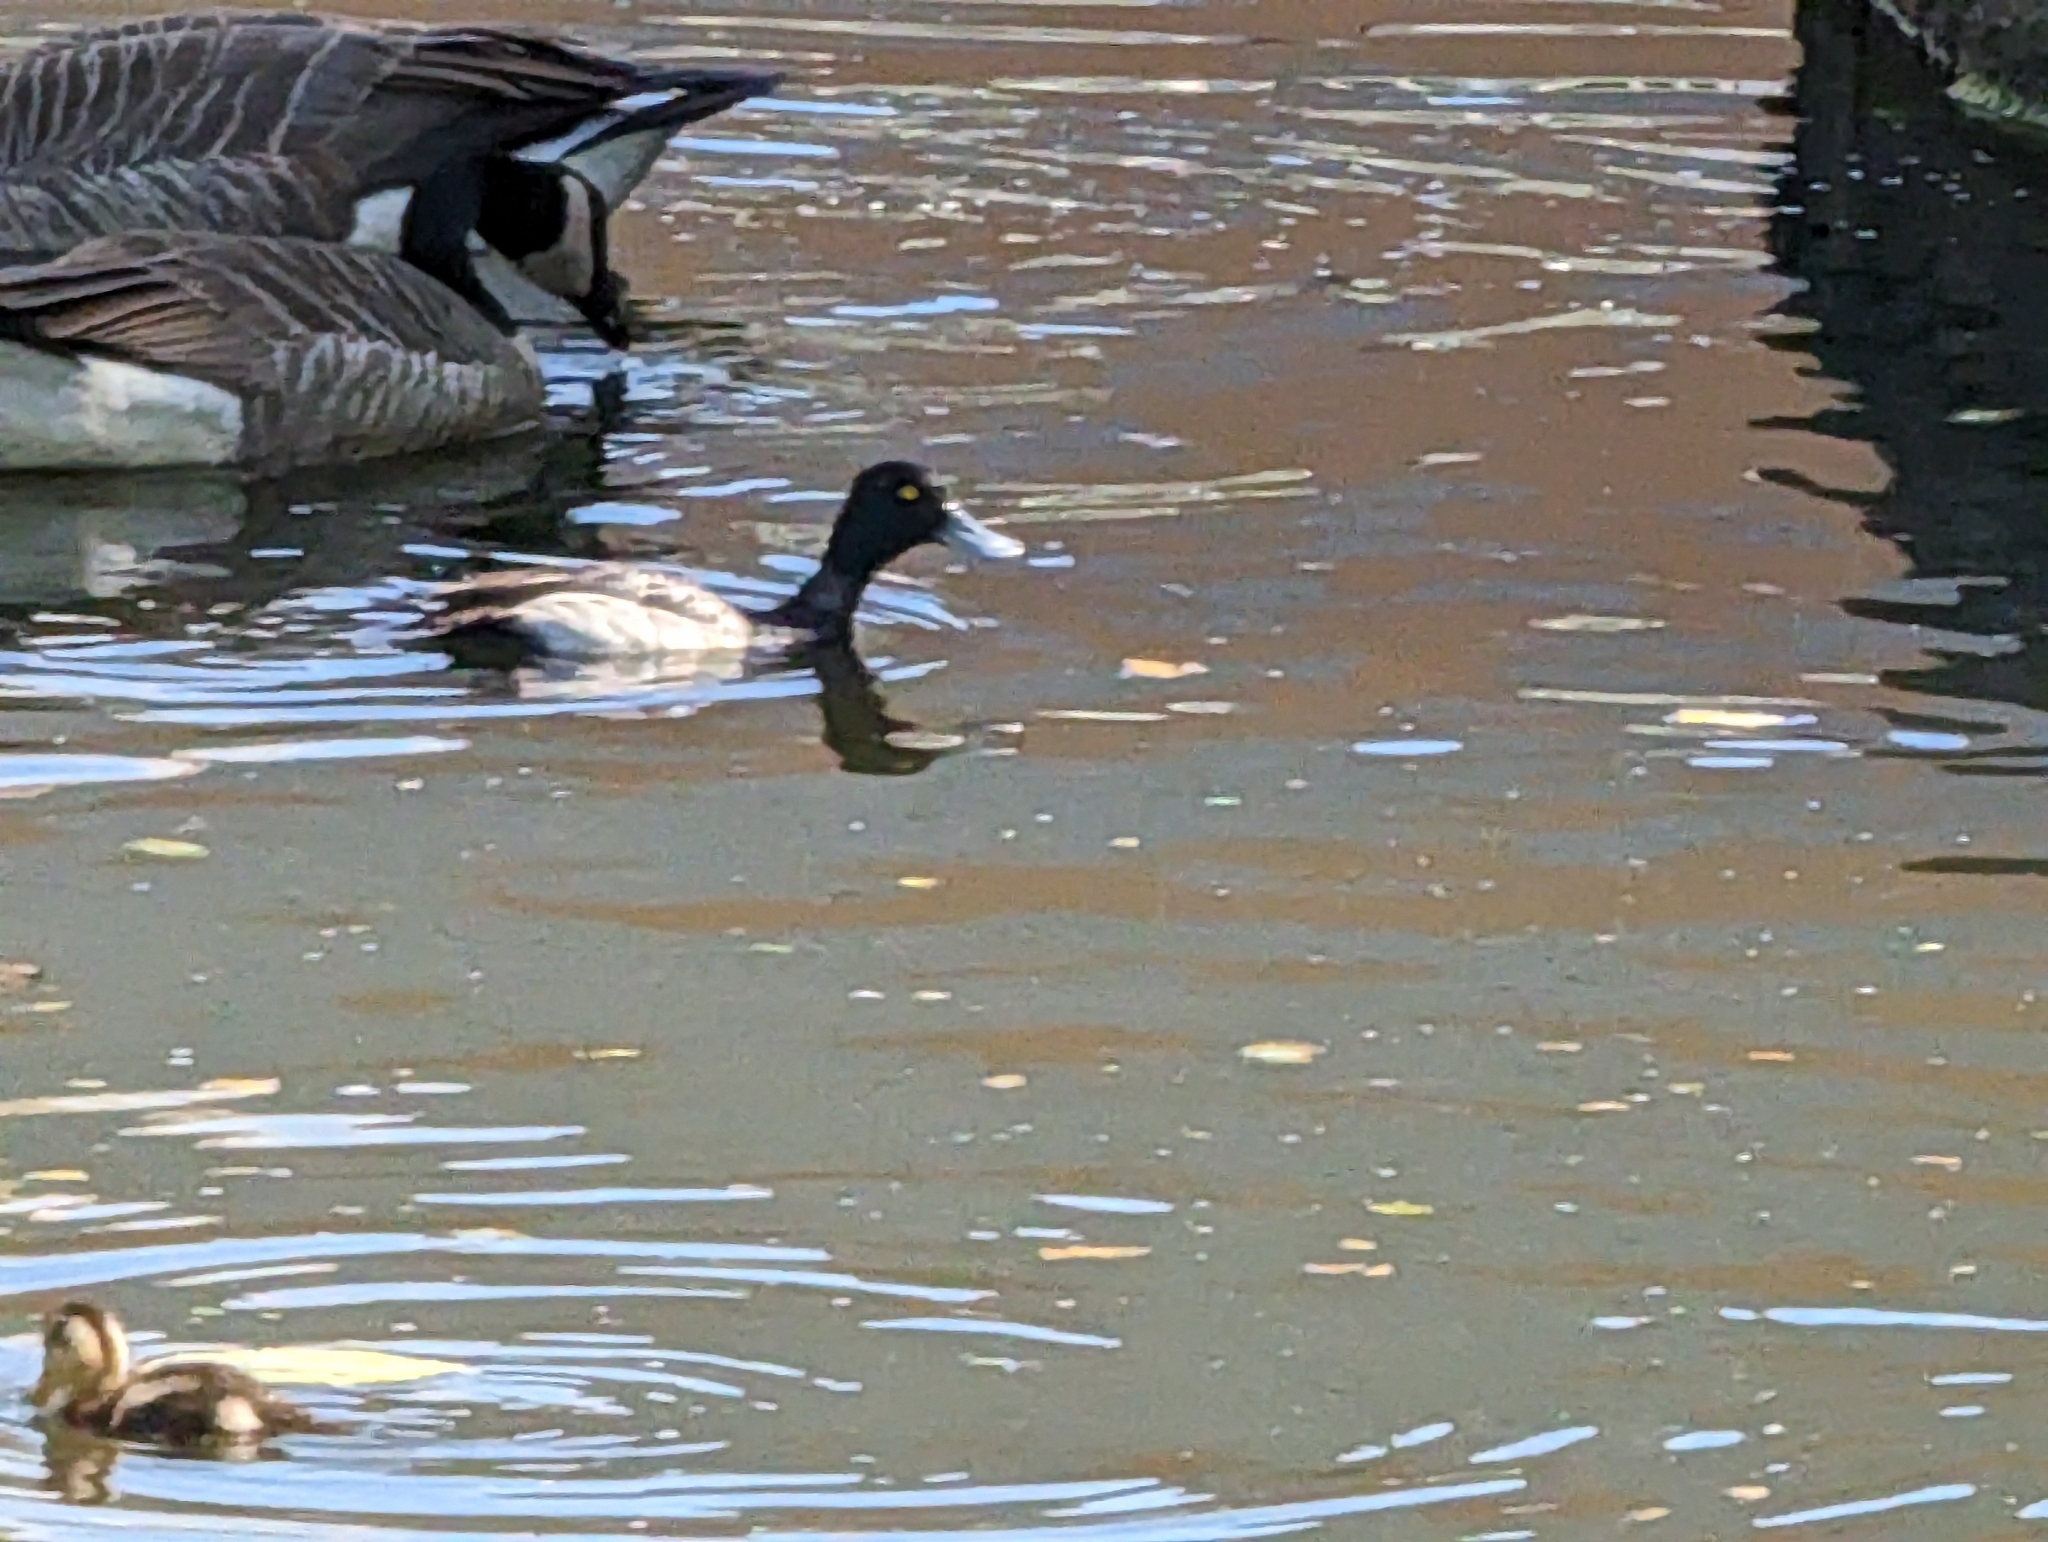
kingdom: Animalia
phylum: Chordata
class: Aves
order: Anseriformes
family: Anatidae
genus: Aythya
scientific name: Aythya affinis
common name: Lesser scaup
